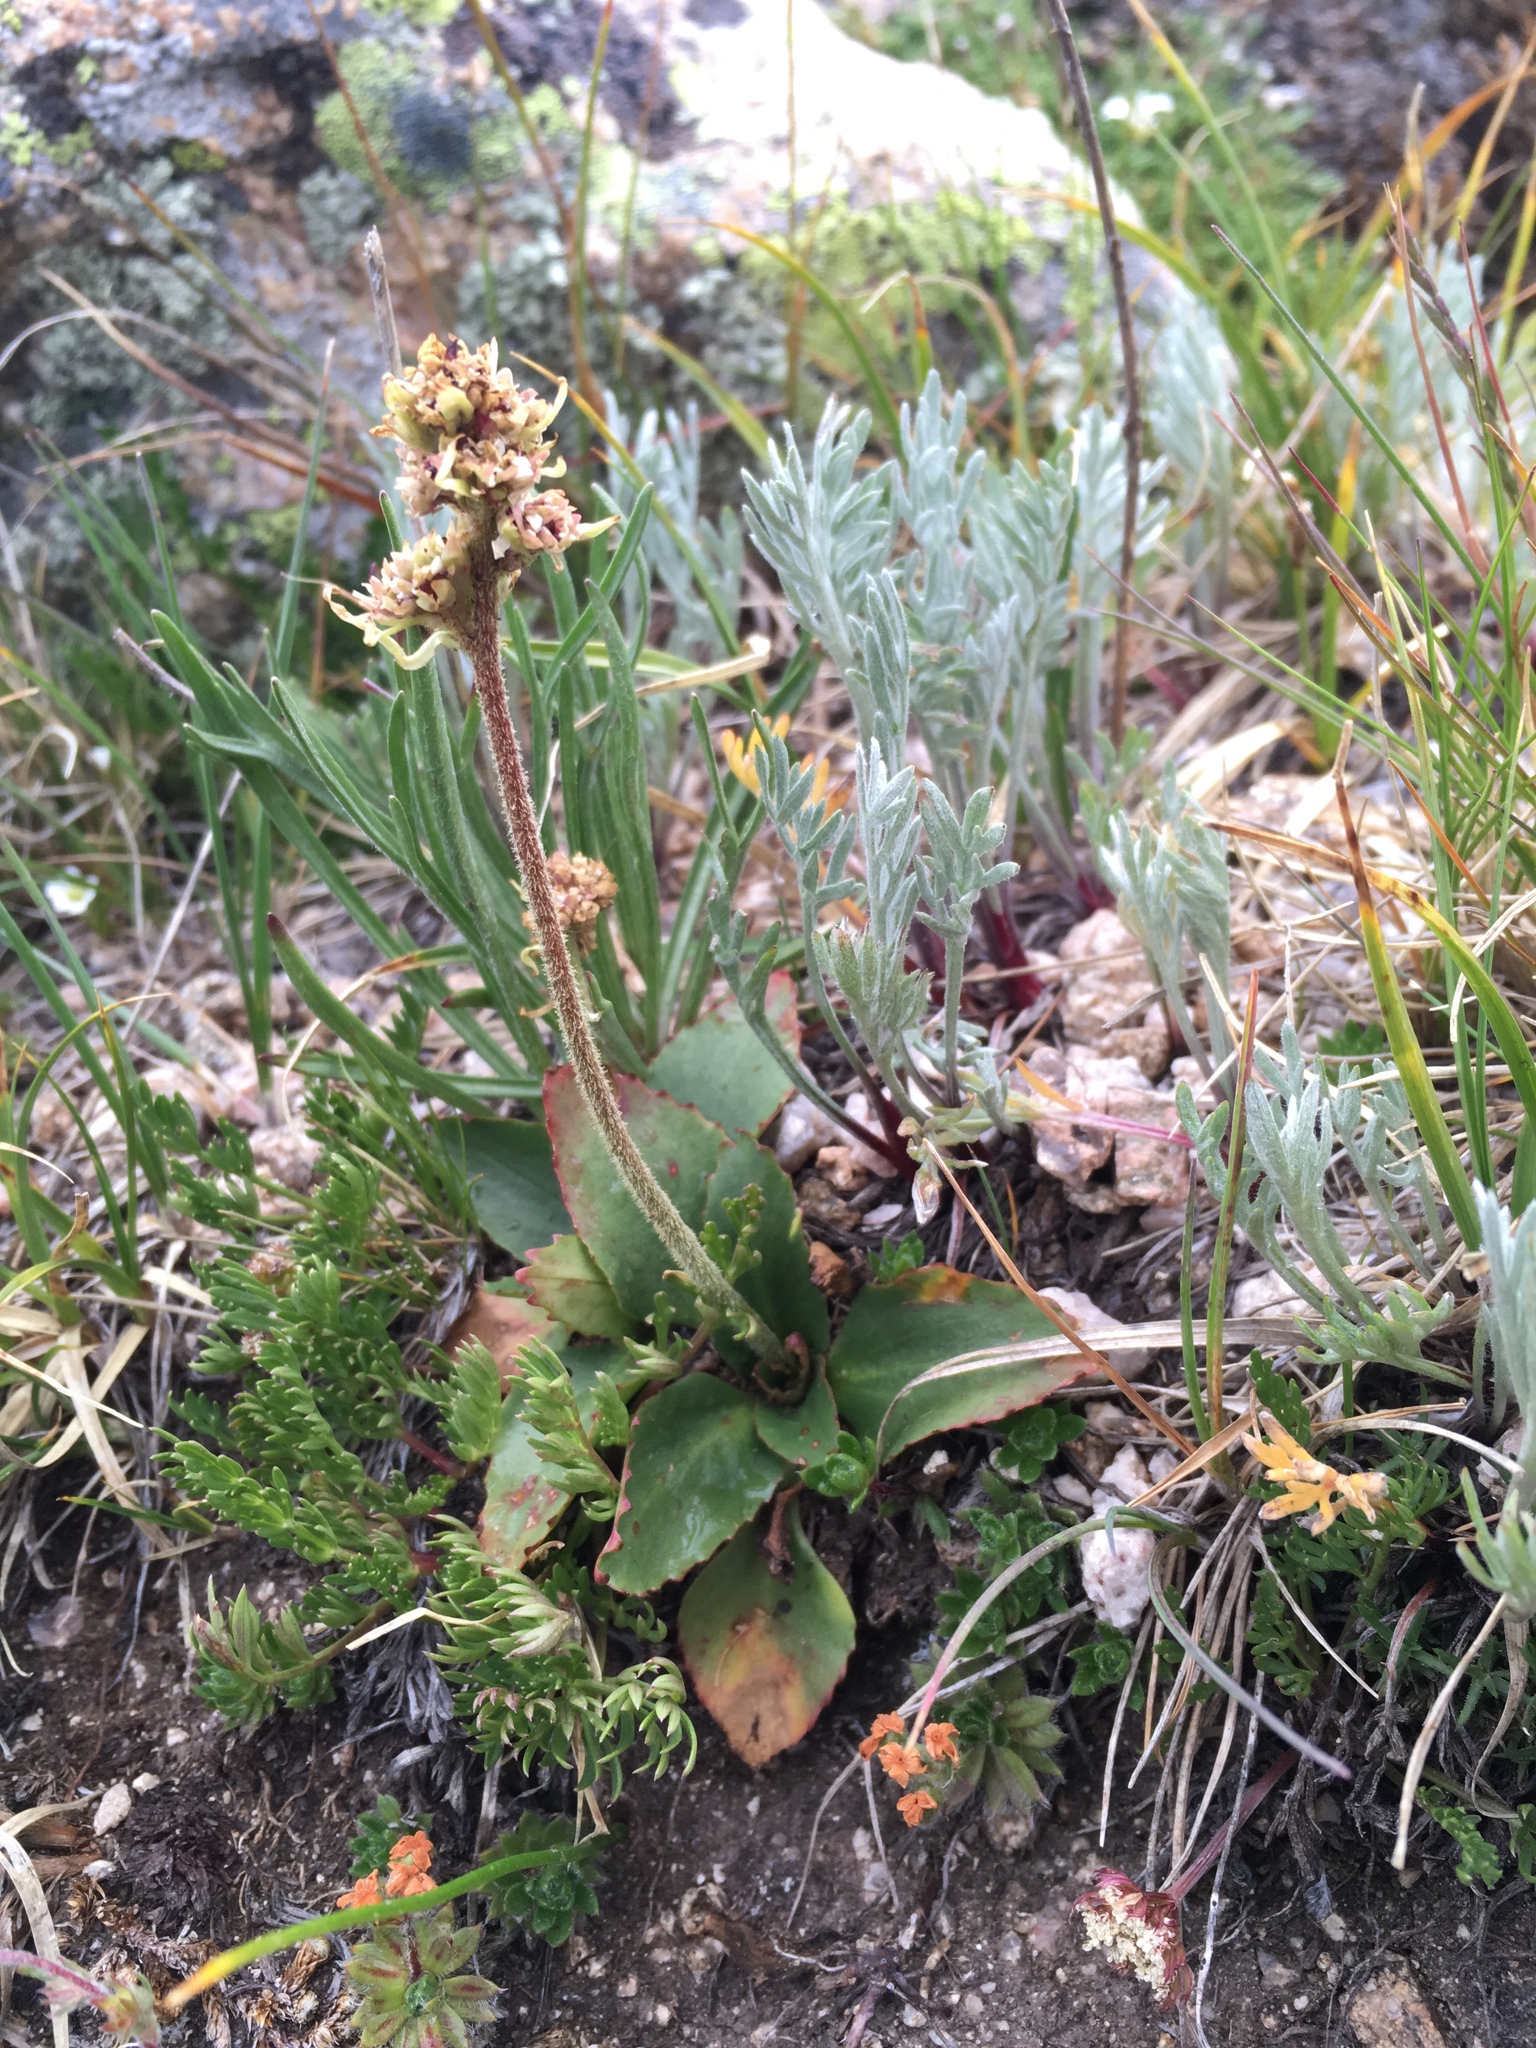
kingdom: Plantae
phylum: Tracheophyta
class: Magnoliopsida
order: Saxifragales
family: Saxifragaceae
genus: Micranthes
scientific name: Micranthes rhomboidea
